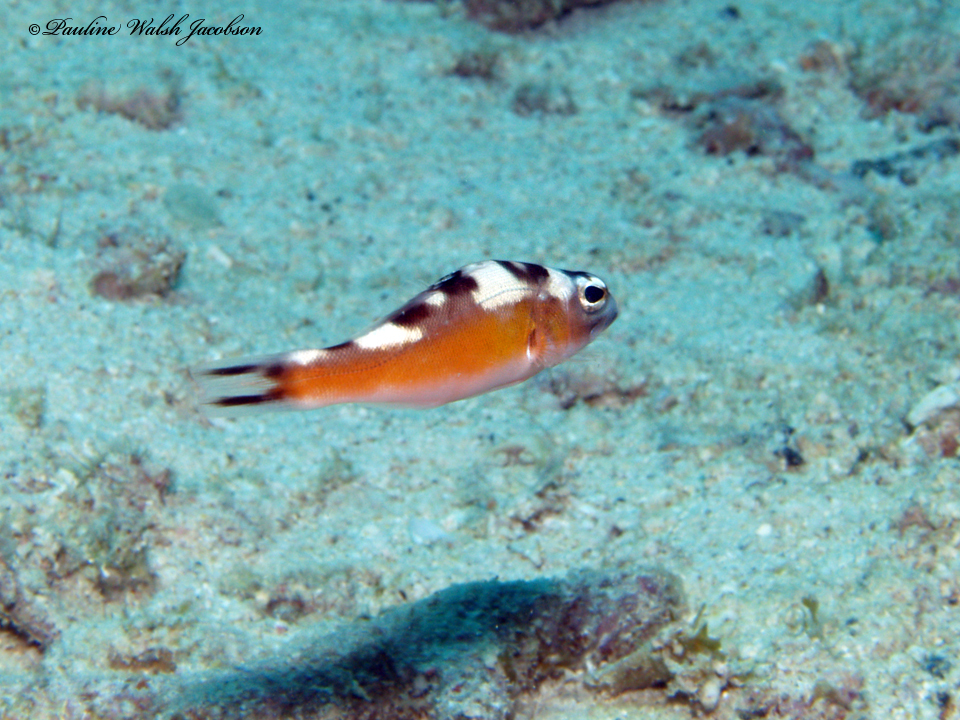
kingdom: Animalia
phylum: Chordata
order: Perciformes
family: Serranidae
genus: Serranus
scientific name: Serranus tabacarius
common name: Tobaccofish
